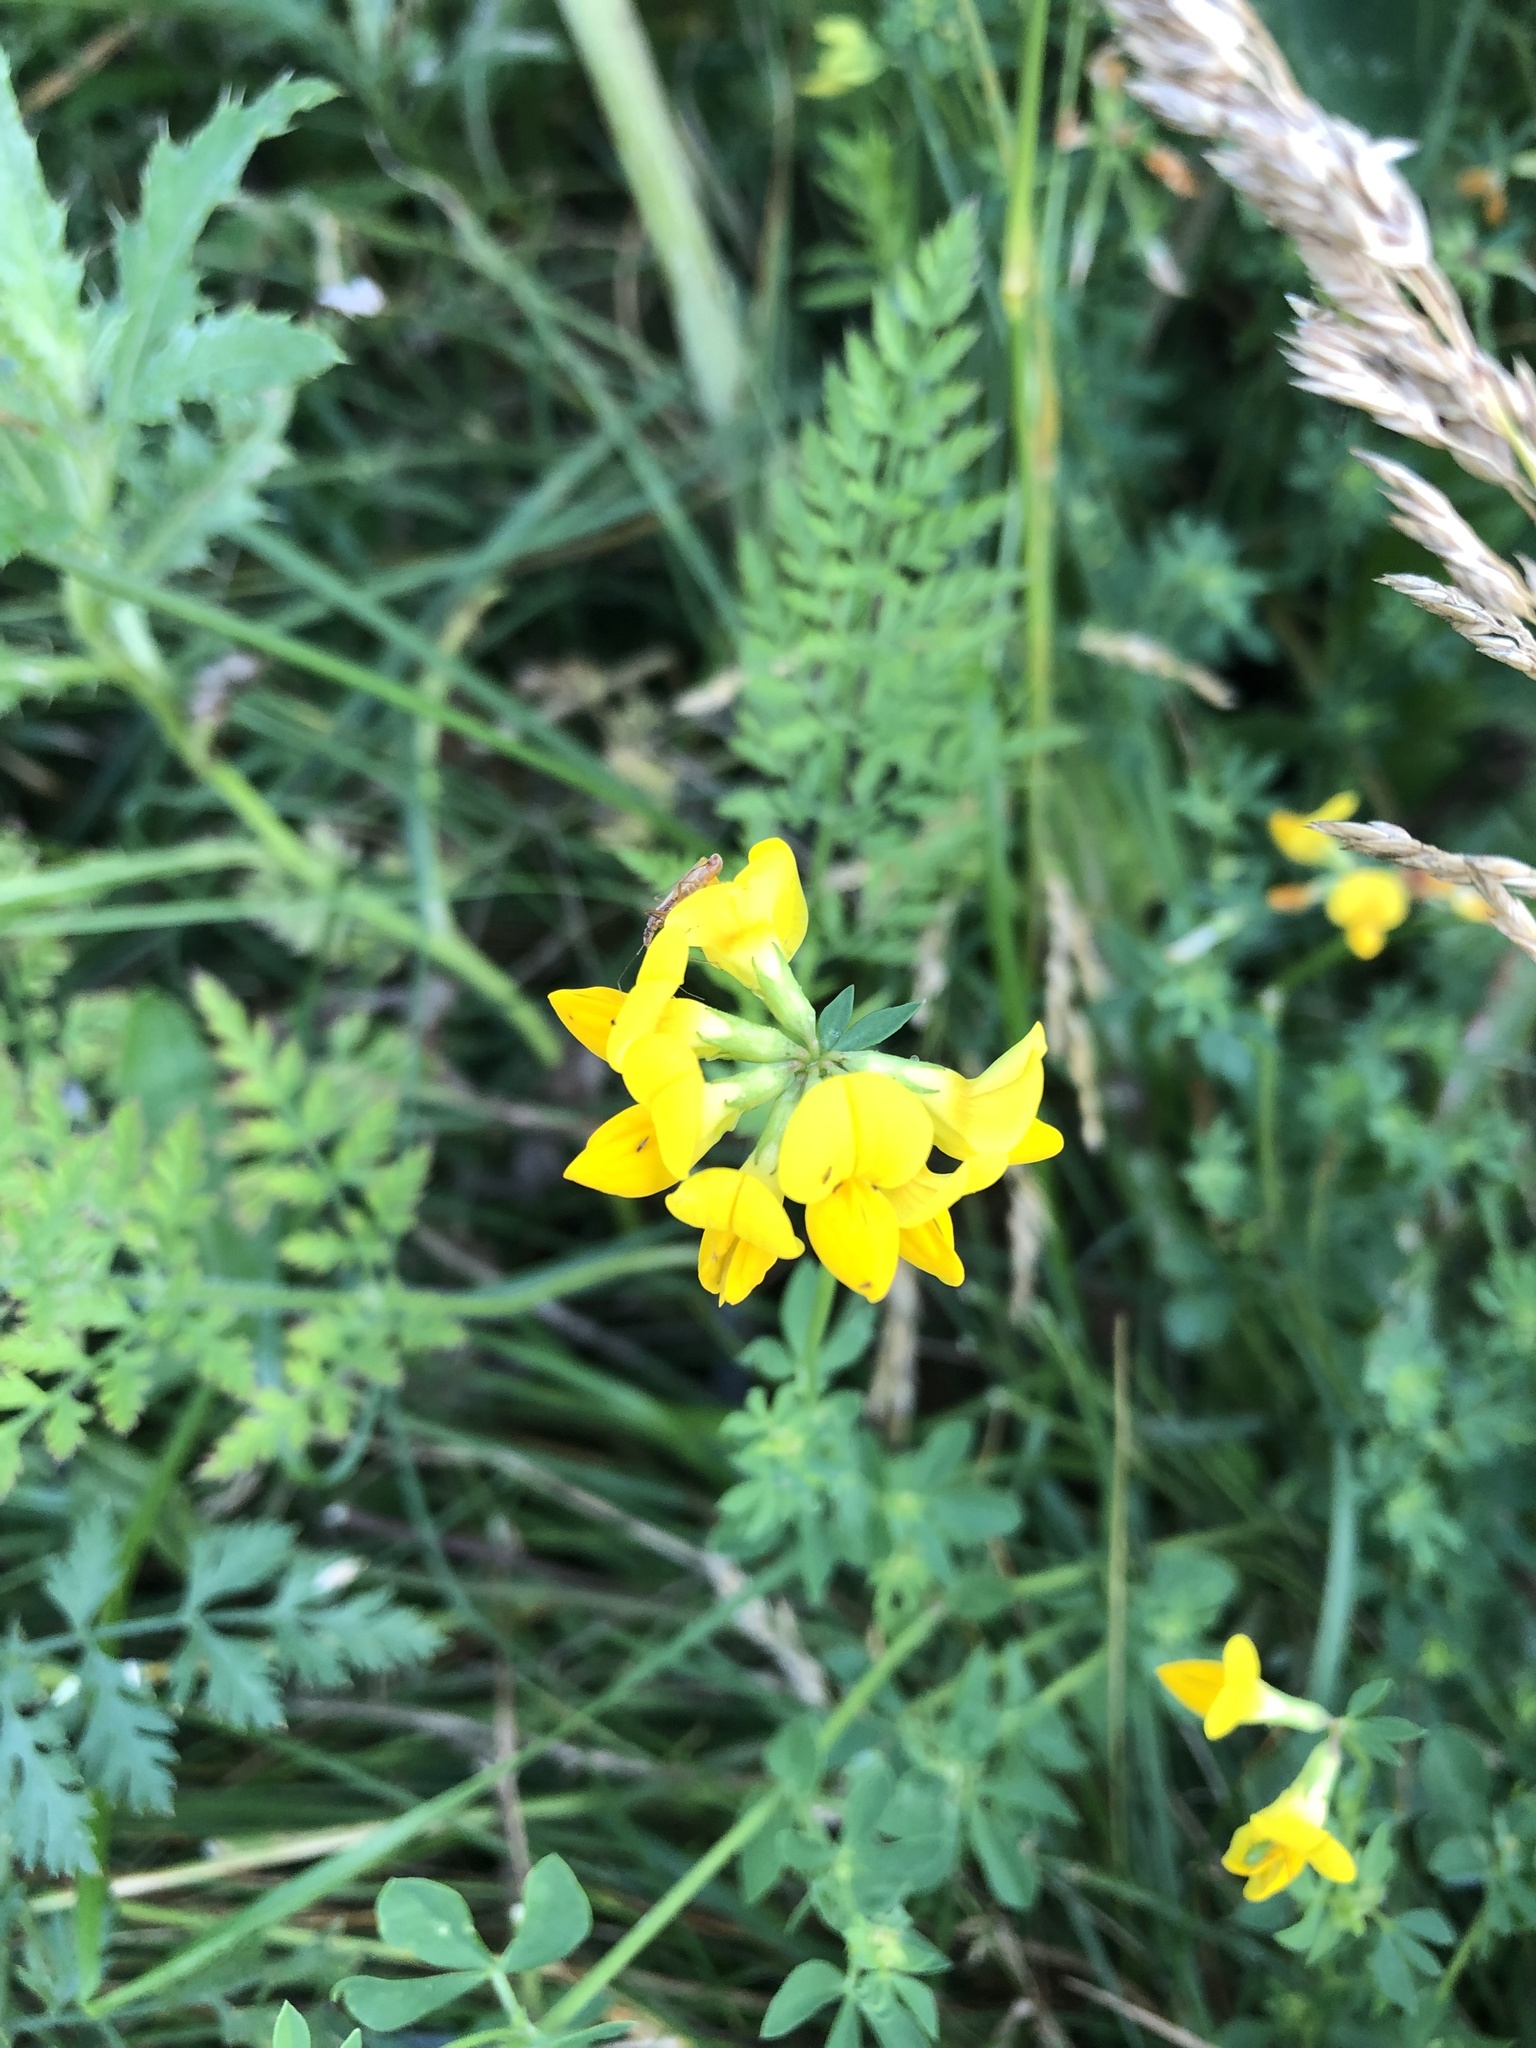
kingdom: Plantae
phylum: Tracheophyta
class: Magnoliopsida
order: Fabales
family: Fabaceae
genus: Lotus
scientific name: Lotus corniculatus
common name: Common bird's-foot-trefoil
